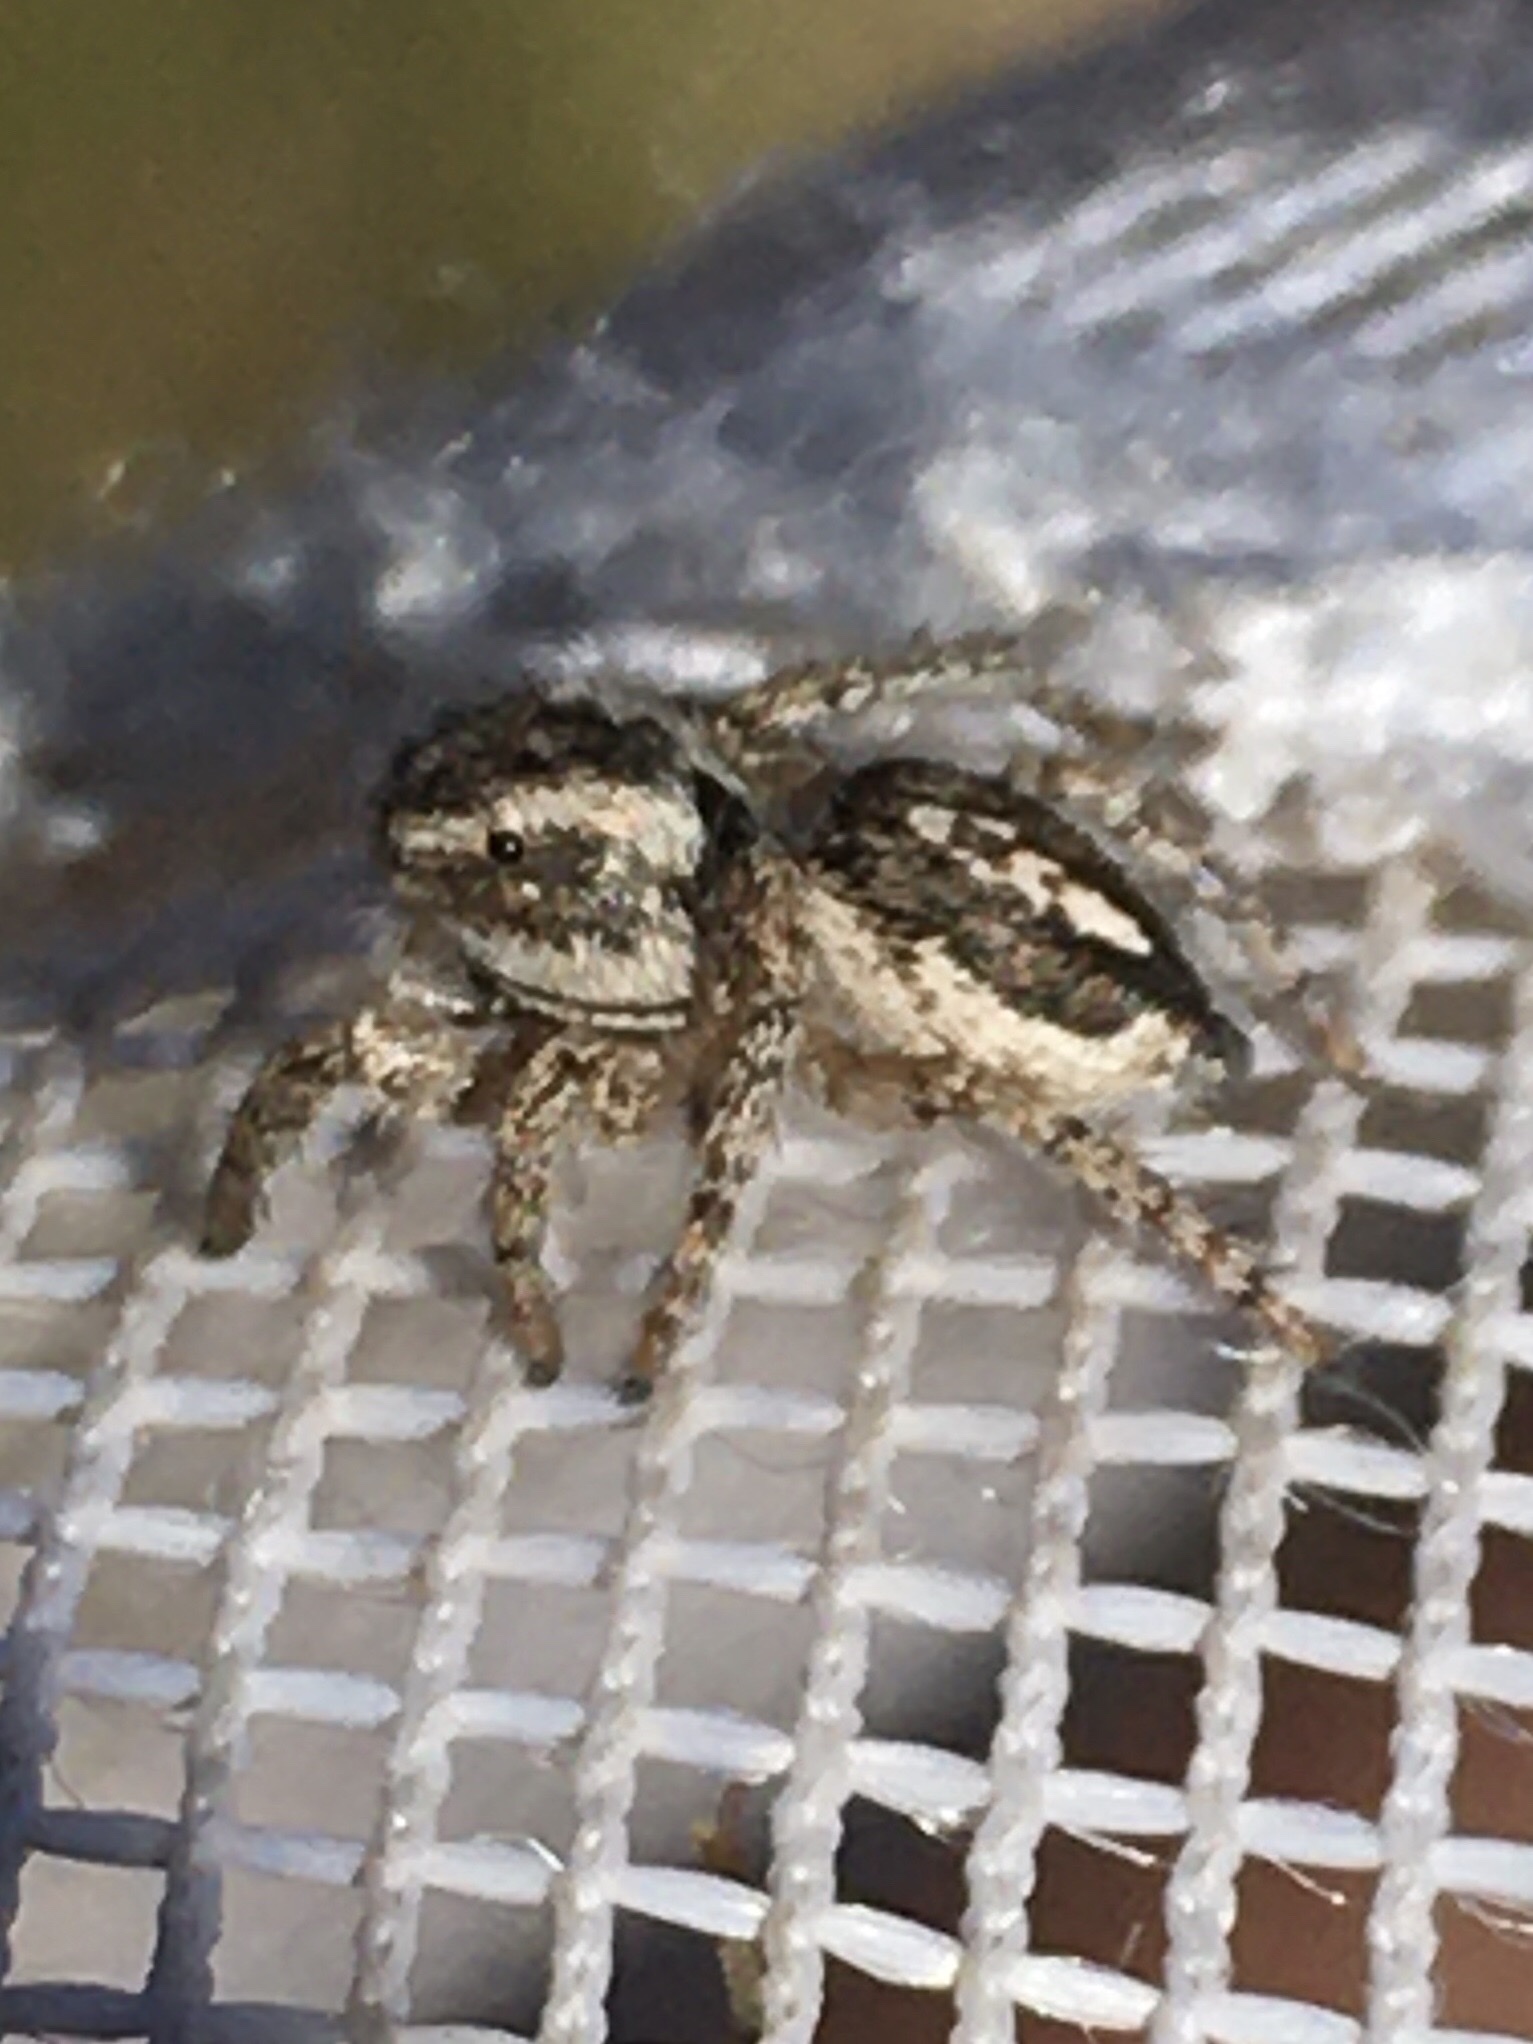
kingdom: Animalia
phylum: Arthropoda
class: Arachnida
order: Araneae
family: Salticidae
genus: Habronattus
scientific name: Habronattus cognatus
